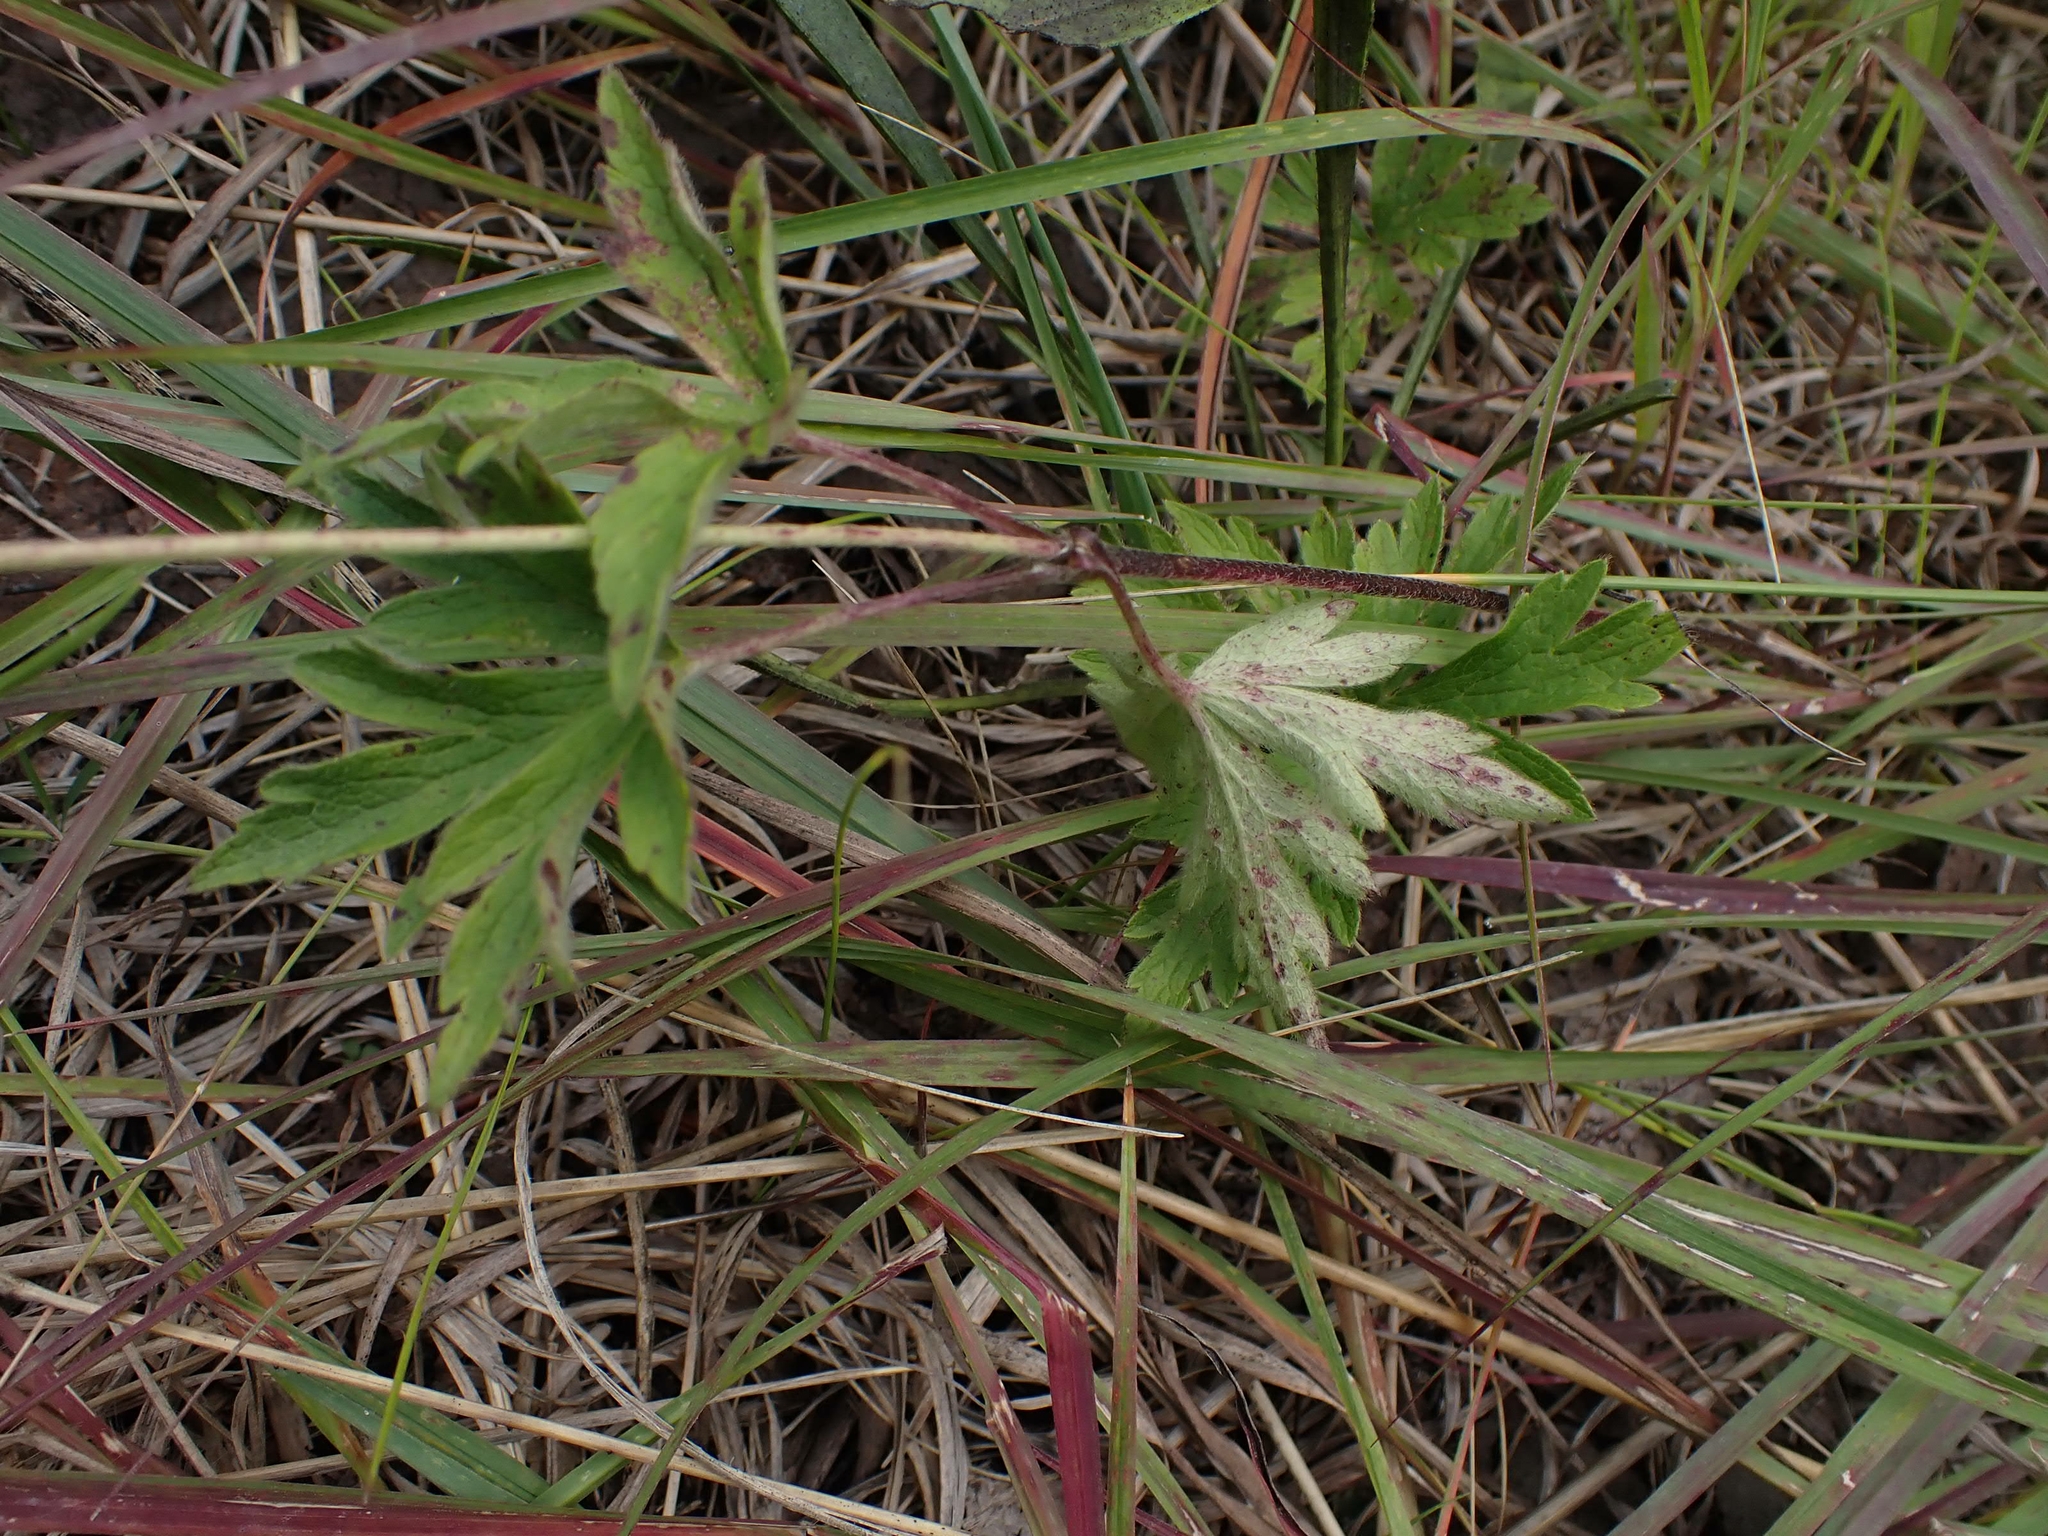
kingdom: Plantae
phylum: Tracheophyta
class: Magnoliopsida
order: Ranunculales
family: Ranunculaceae
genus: Anemone
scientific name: Anemone virginiana
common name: Tall anemone
